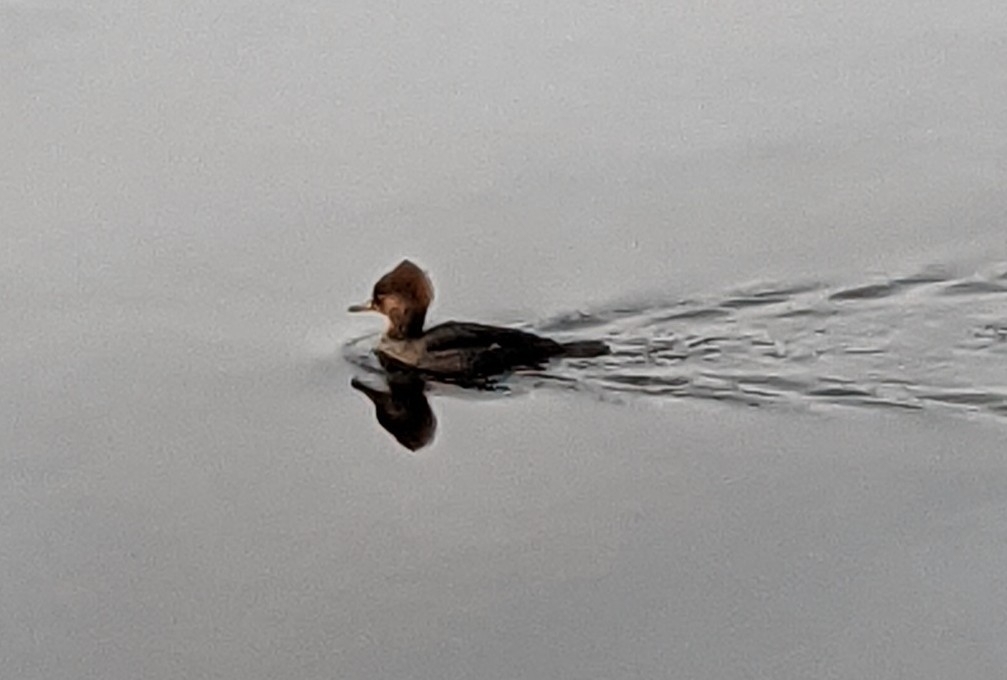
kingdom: Animalia
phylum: Chordata
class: Aves
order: Anseriformes
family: Anatidae
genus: Lophodytes
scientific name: Lophodytes cucullatus
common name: Hooded merganser
